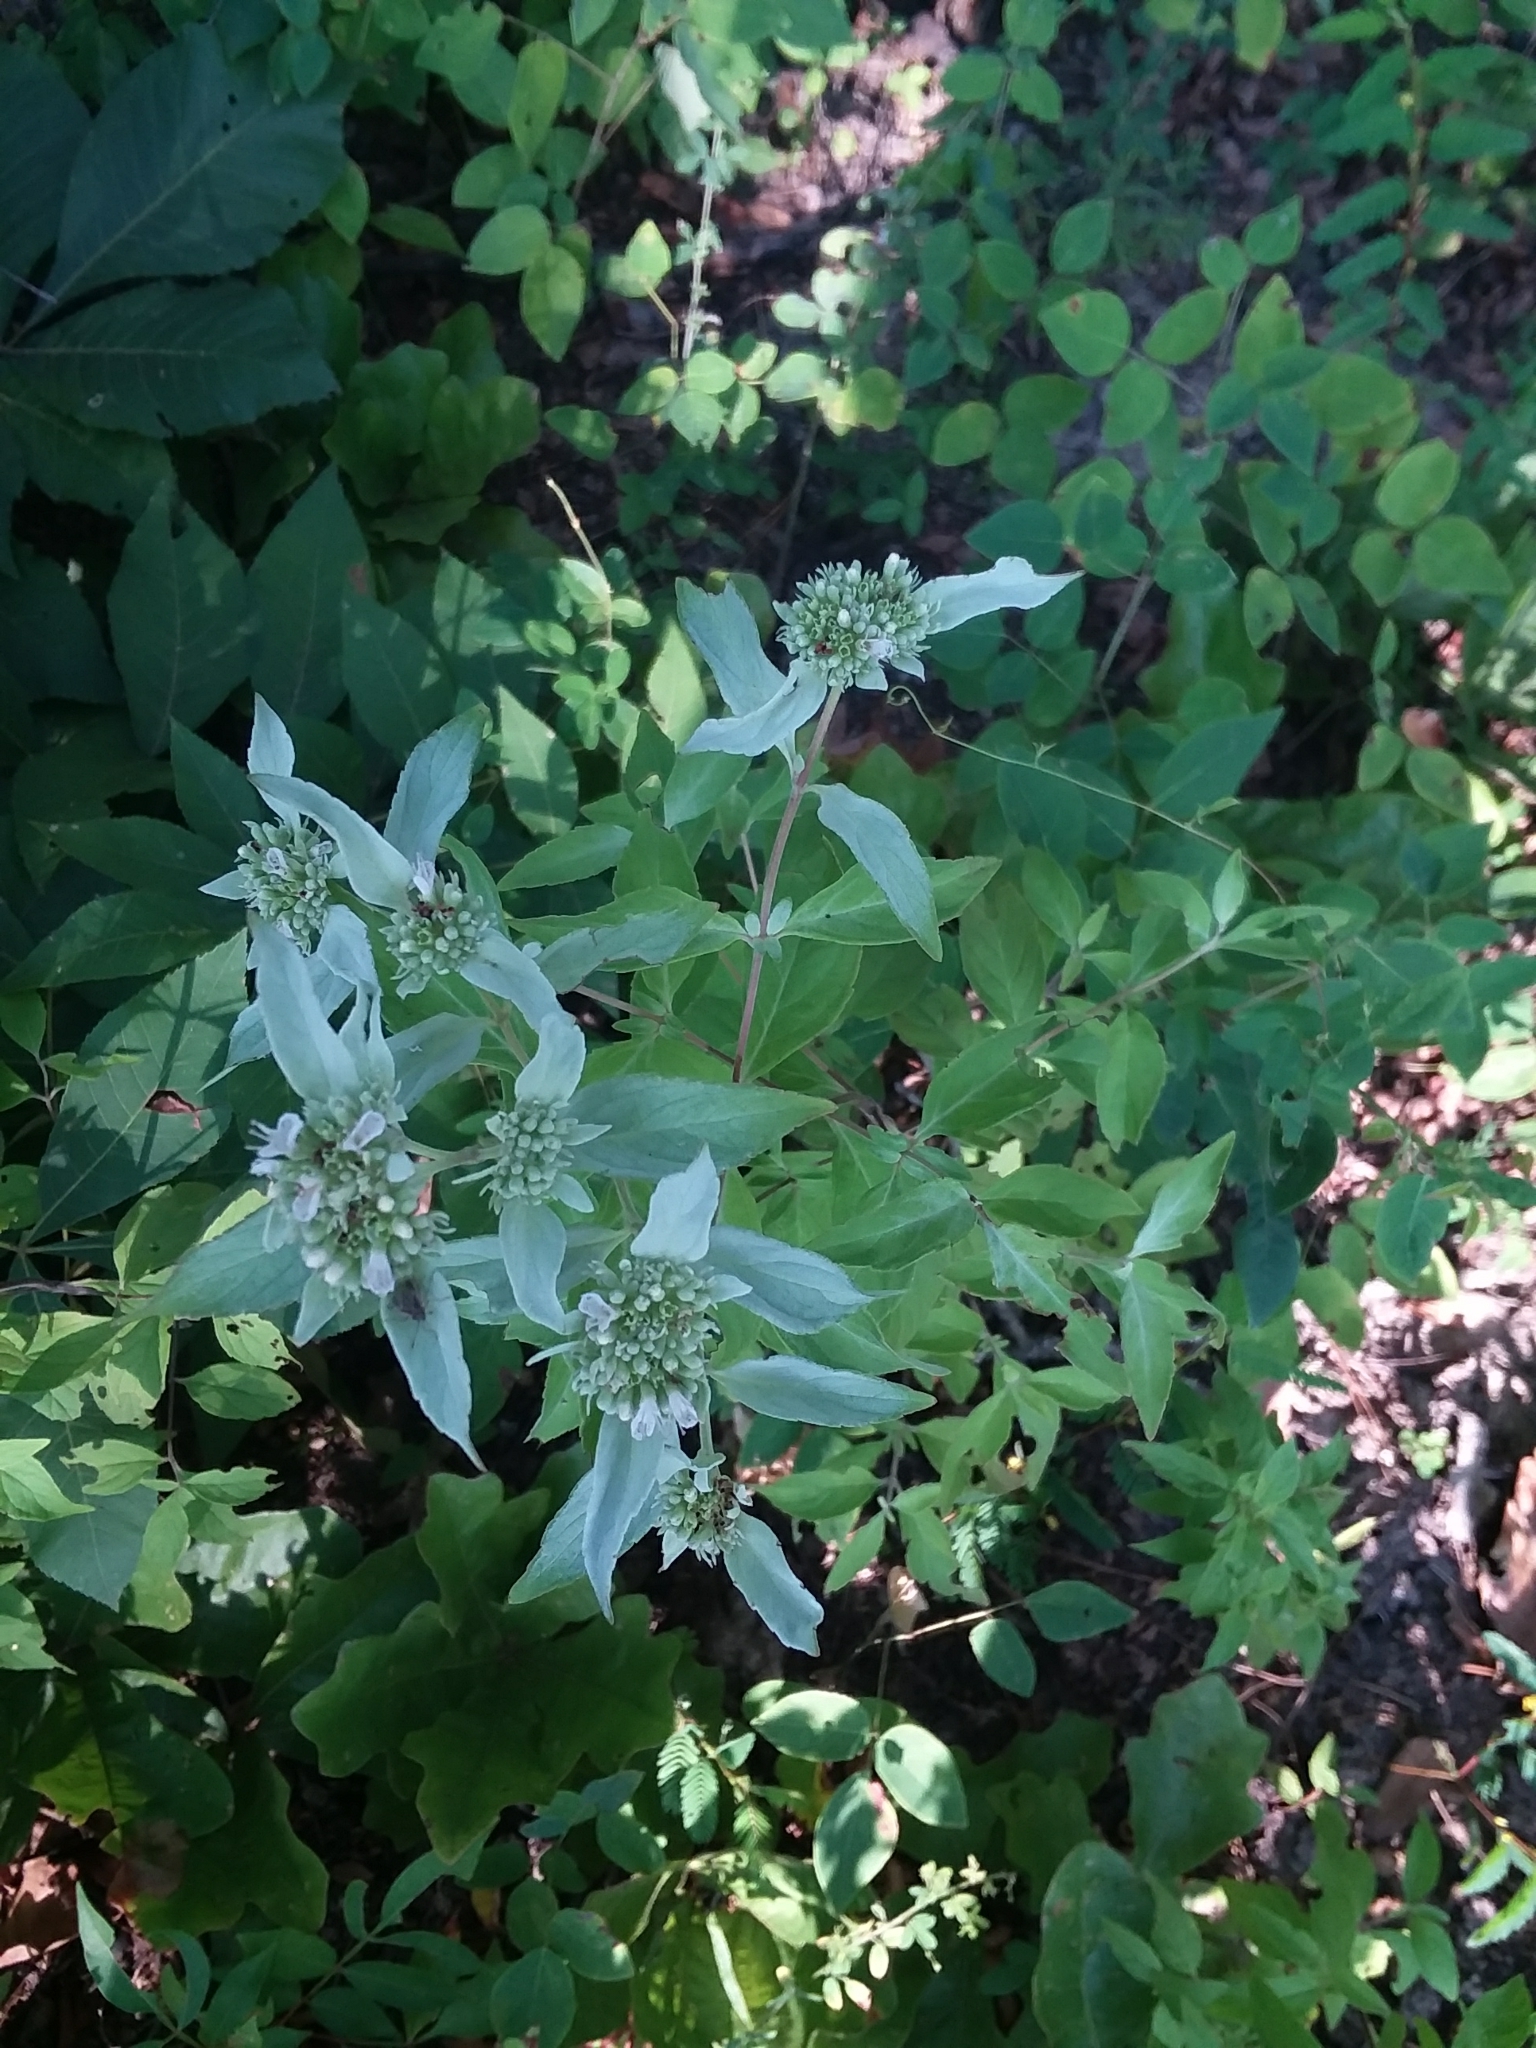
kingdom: Plantae
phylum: Tracheophyta
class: Magnoliopsida
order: Lamiales
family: Lamiaceae
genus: Pycnanthemum
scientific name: Pycnanthemum albescens
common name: White-leaf mountain-mint
